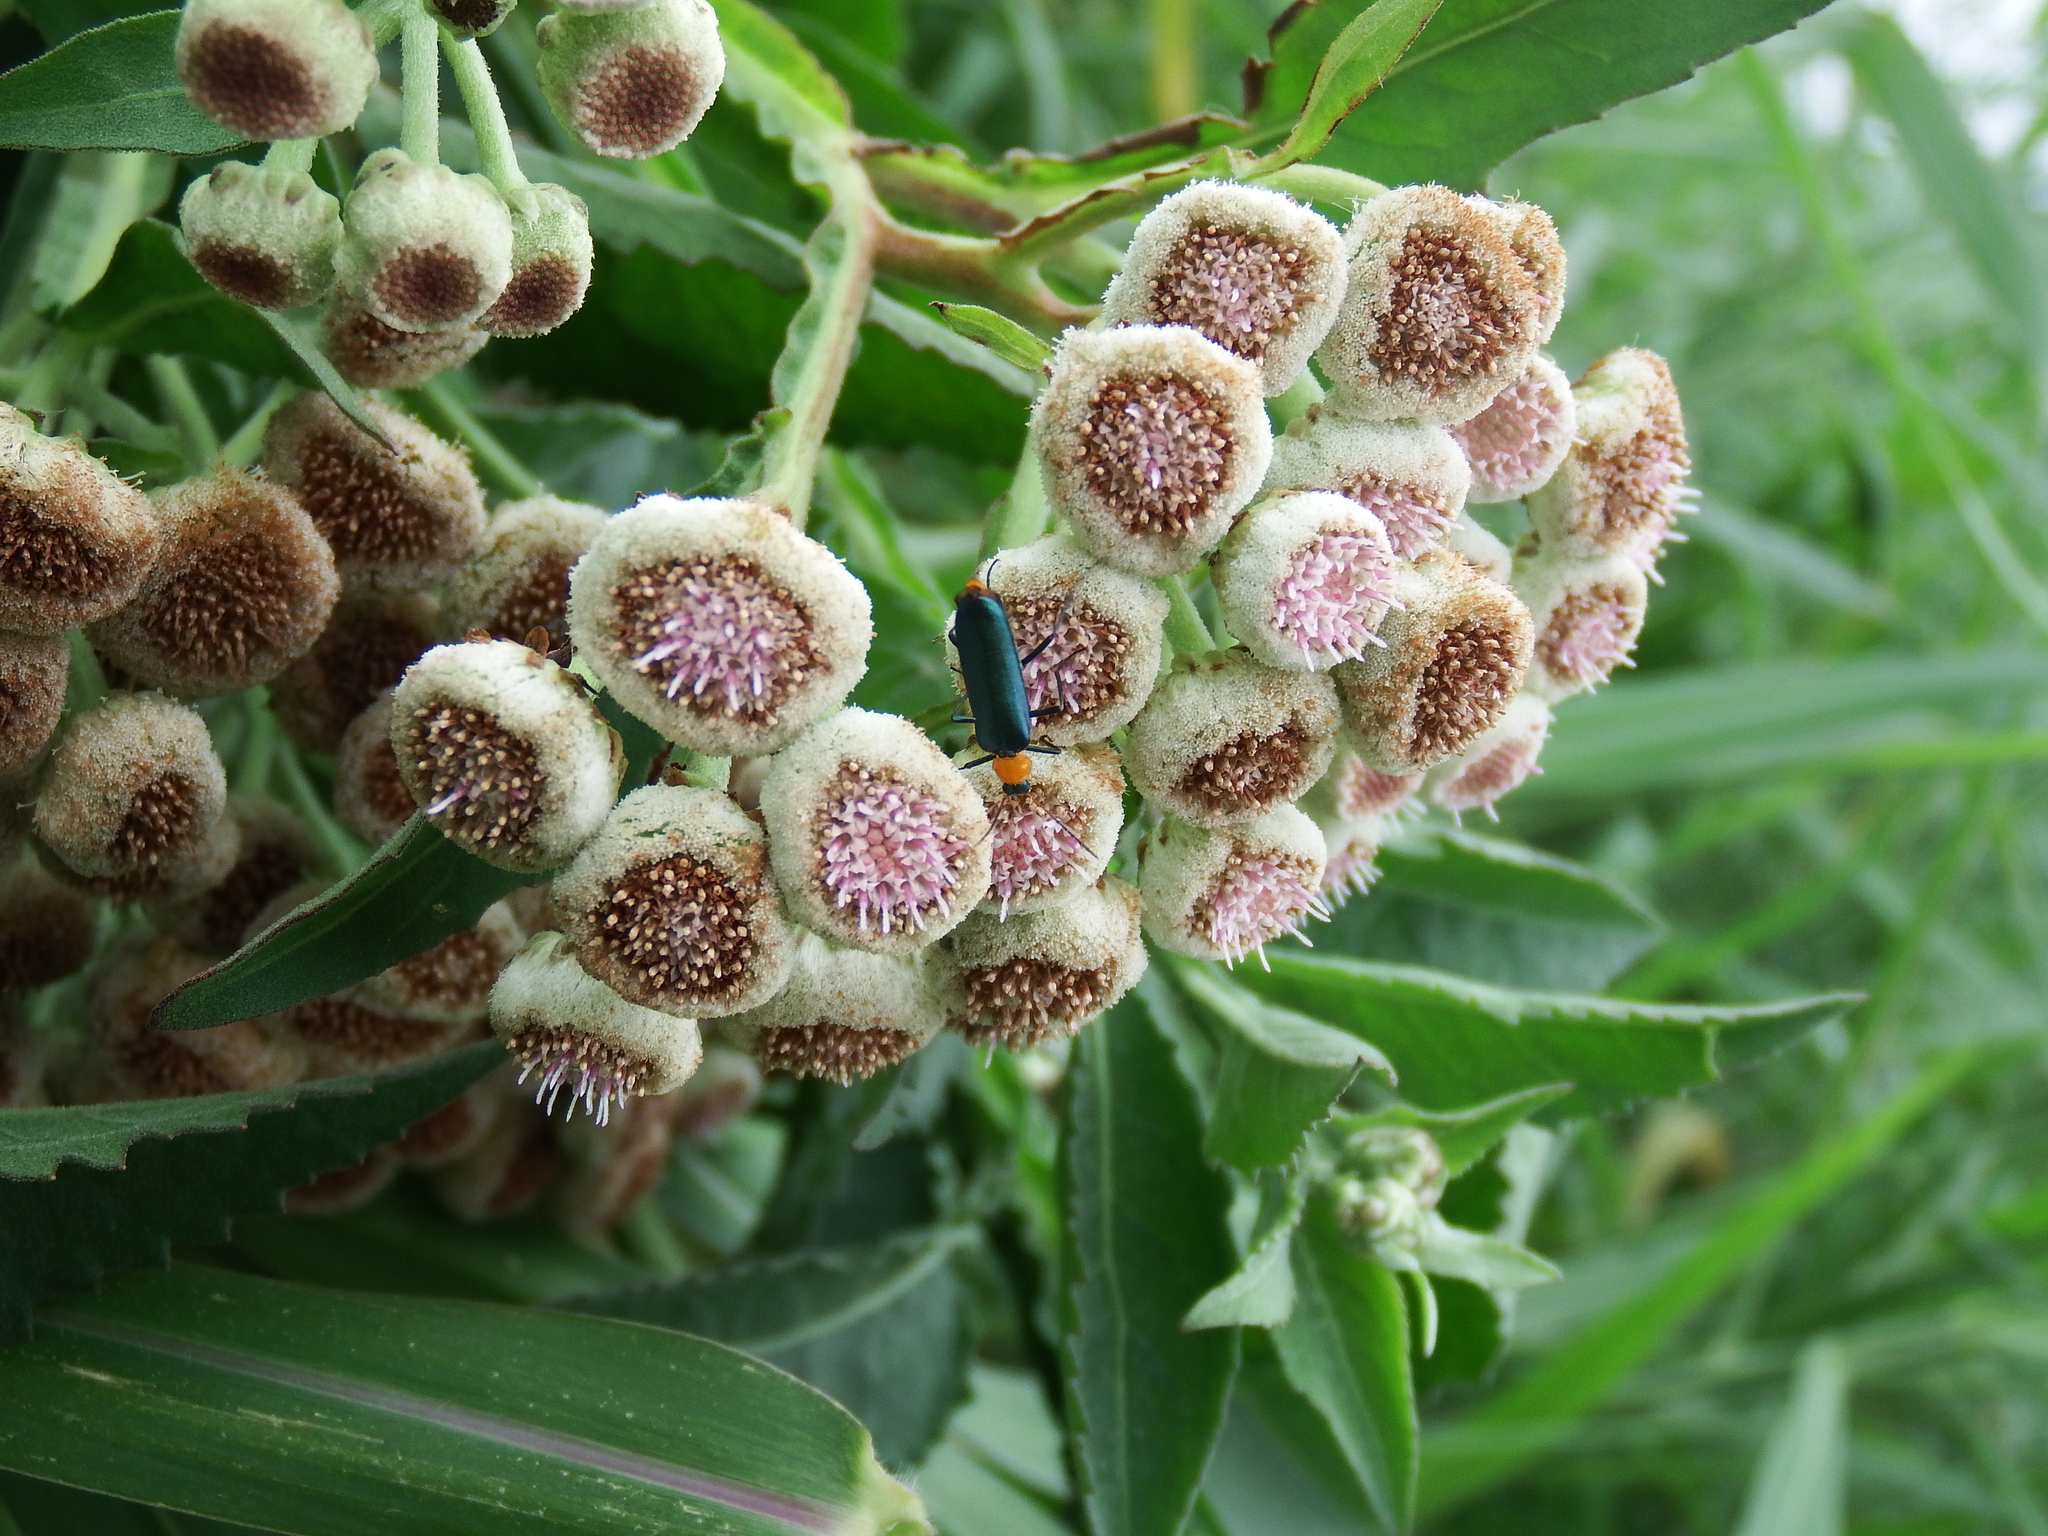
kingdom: Plantae
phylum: Tracheophyta
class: Magnoliopsida
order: Asterales
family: Asteraceae
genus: Pluchea
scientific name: Pluchea sagittalis
